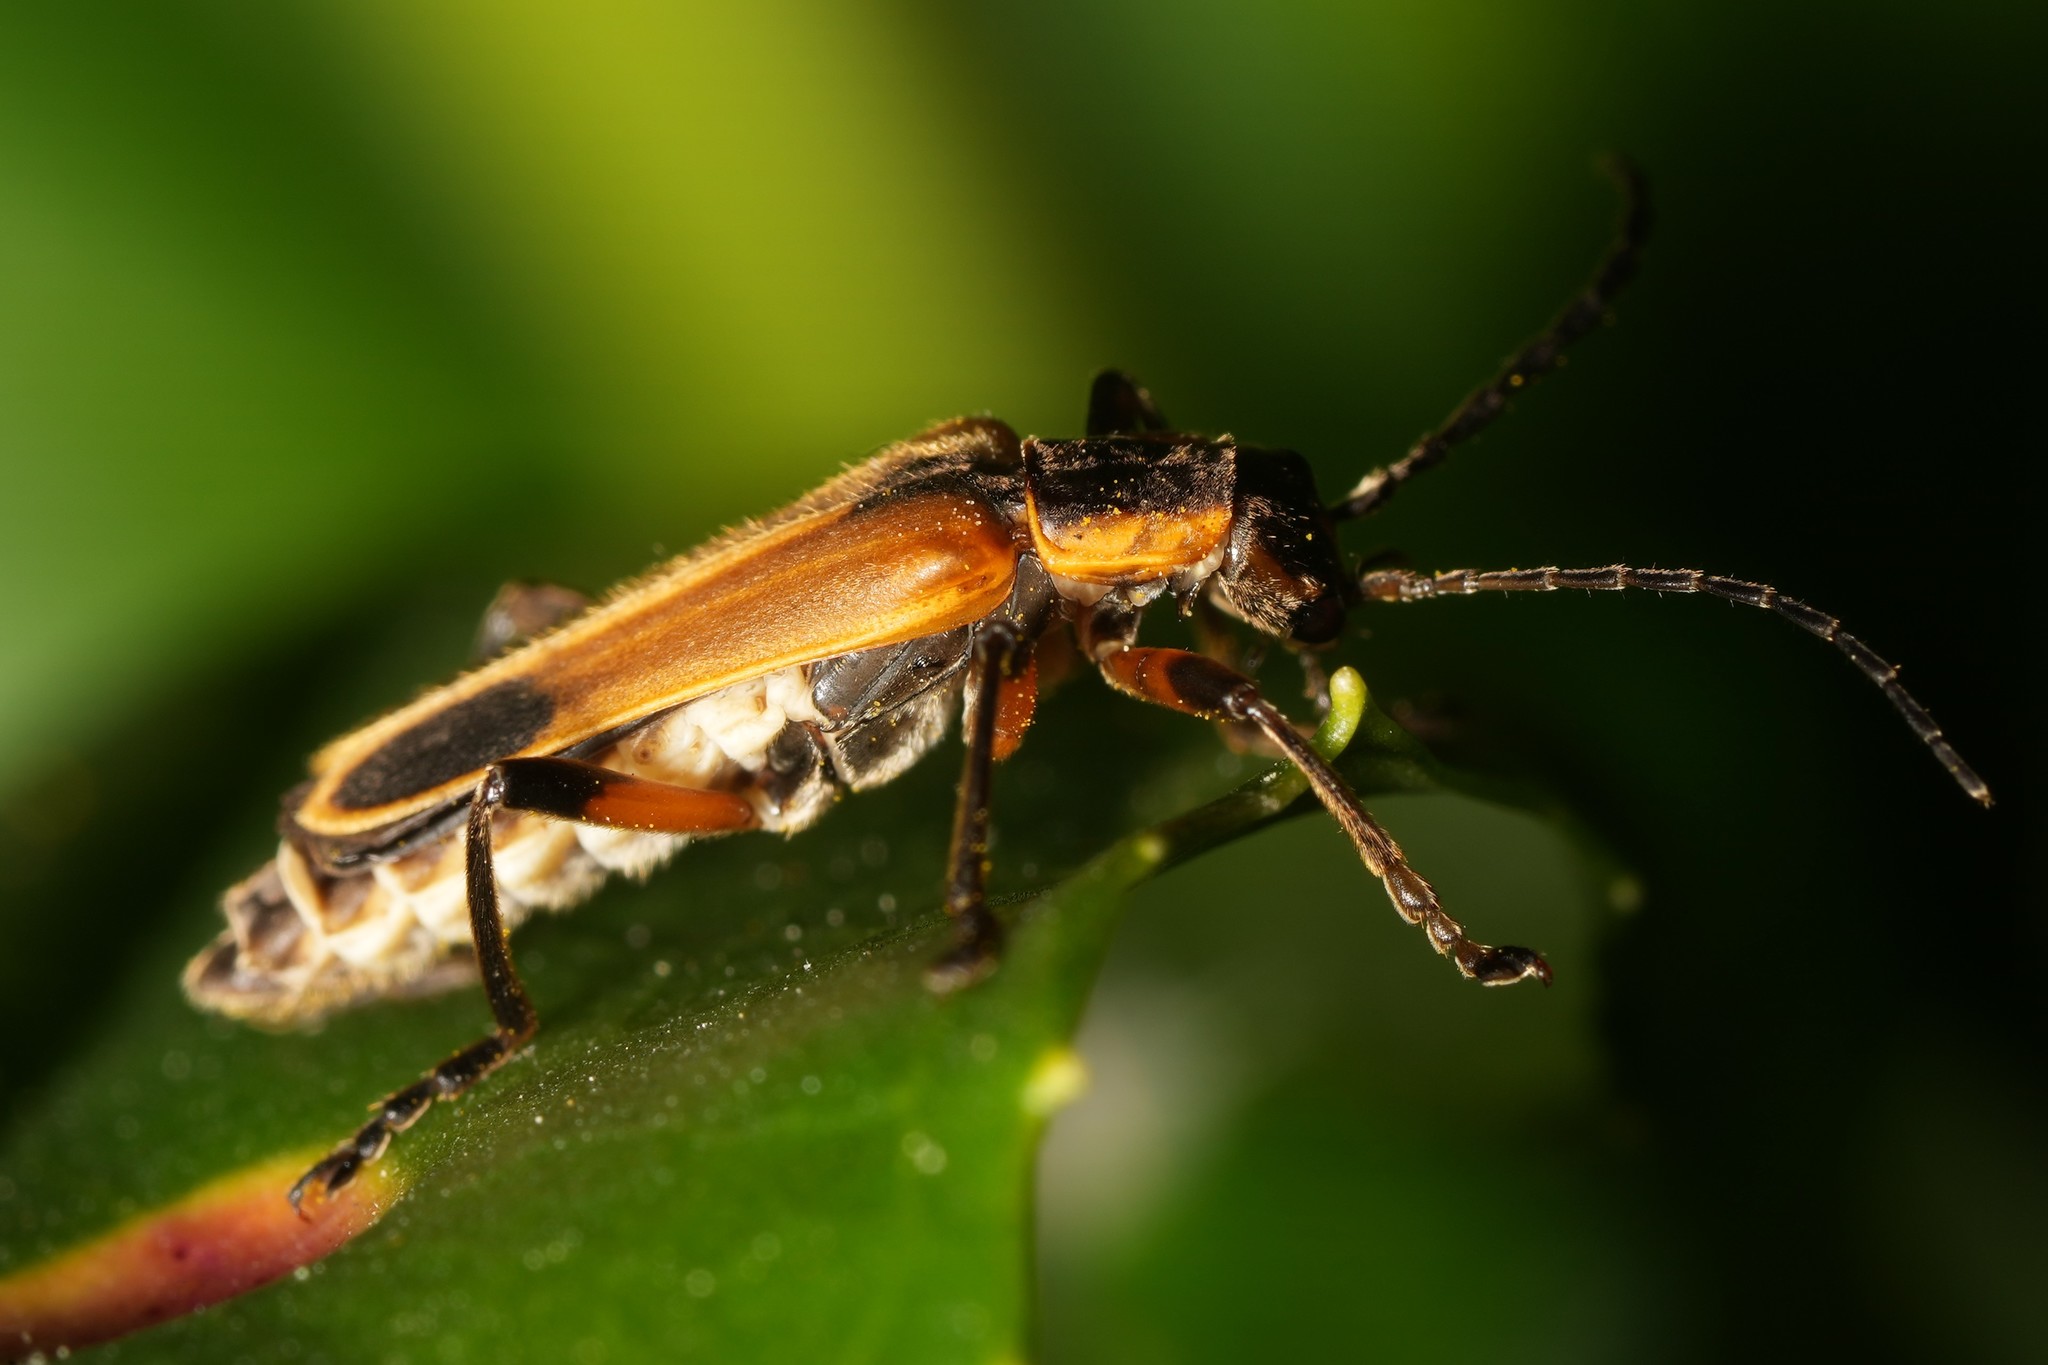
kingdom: Animalia
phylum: Arthropoda
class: Insecta
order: Coleoptera
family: Cantharidae
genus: Chauliognathus
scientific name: Chauliognathus marginatus
